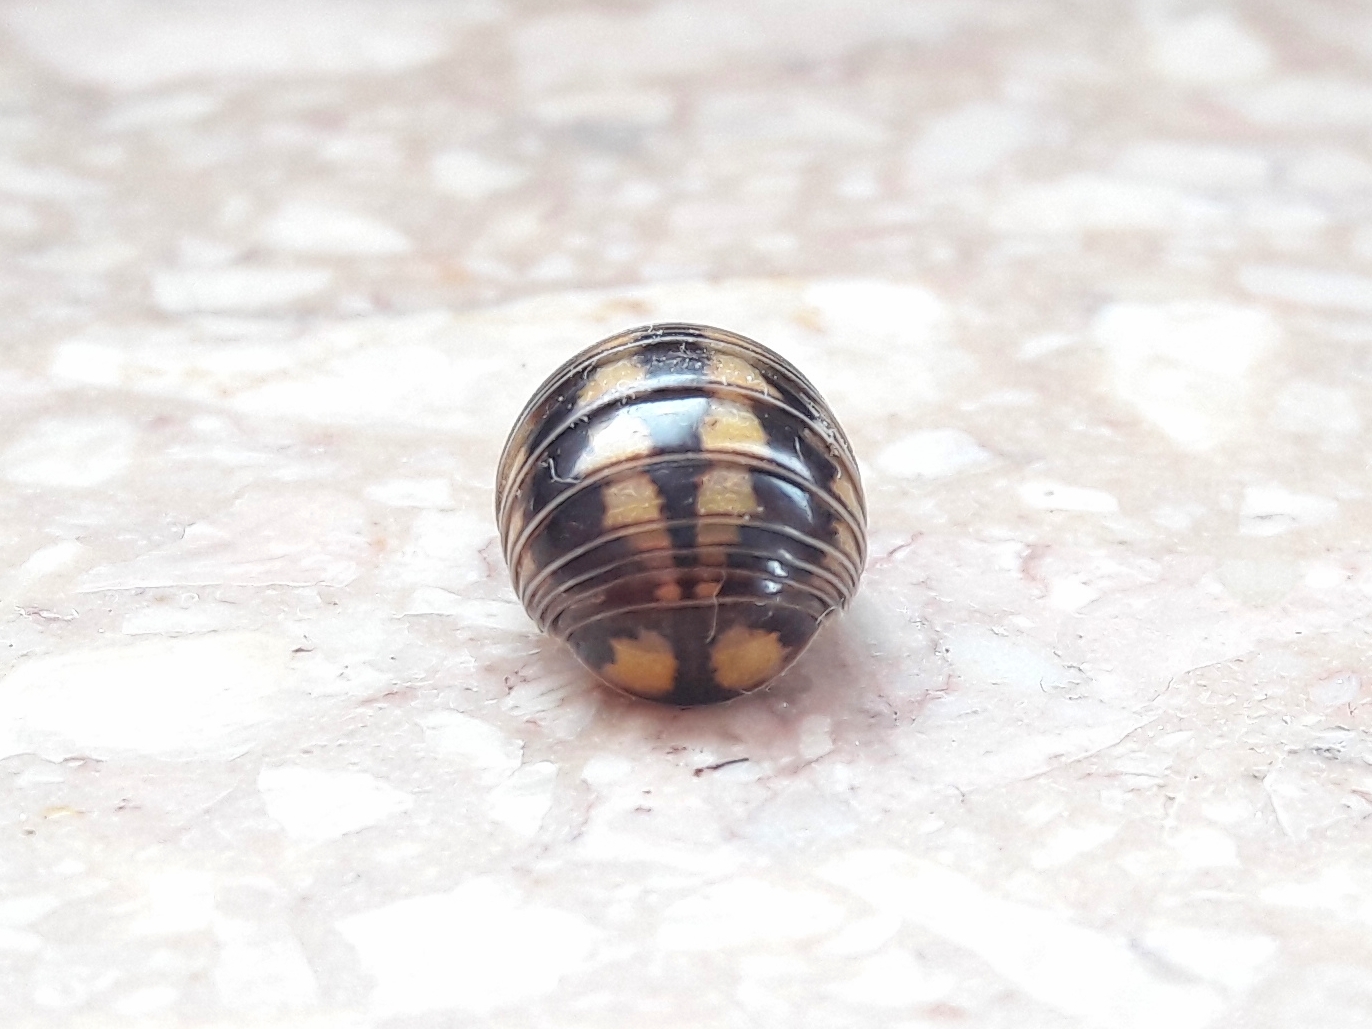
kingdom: Animalia
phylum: Arthropoda
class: Diplopoda
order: Glomerida
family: Glomeridae
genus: Glomeris
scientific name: Glomeris connexa
